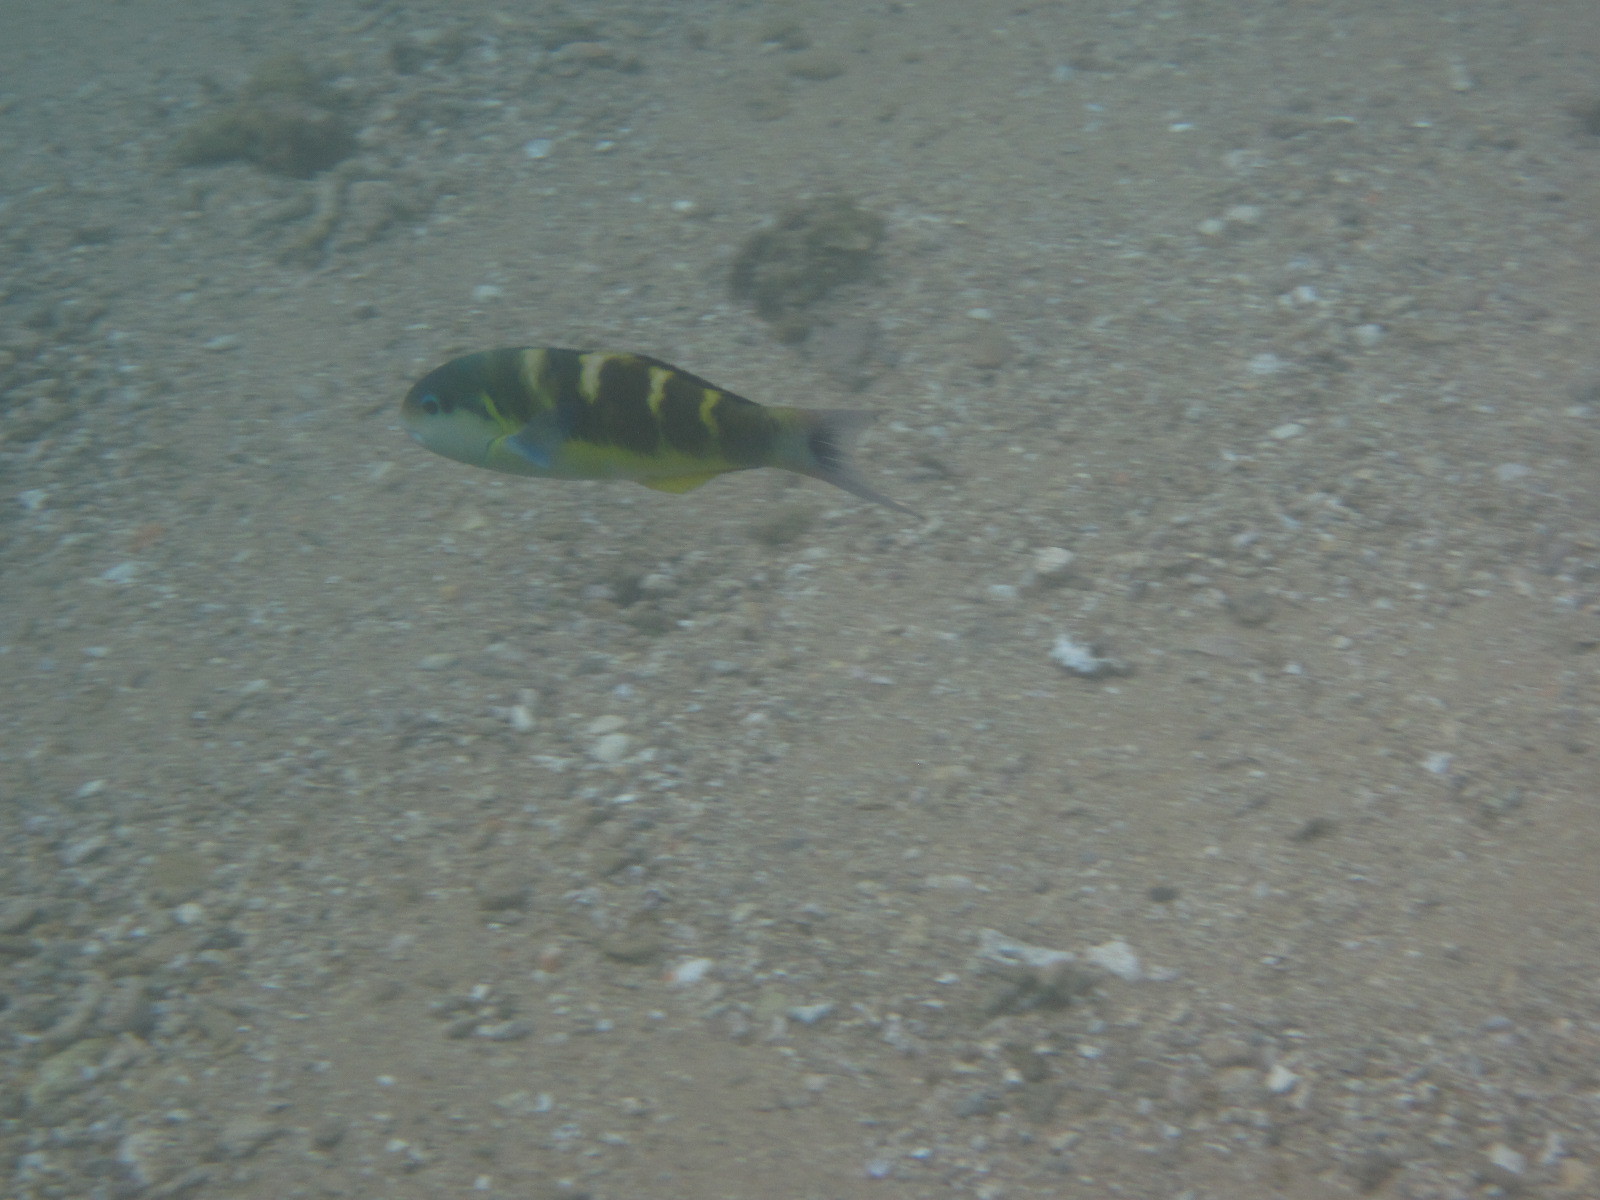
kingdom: Animalia
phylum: Chordata
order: Perciformes
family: Labridae
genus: Thalassoma
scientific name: Thalassoma jansenii
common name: Jansen's wrasse
